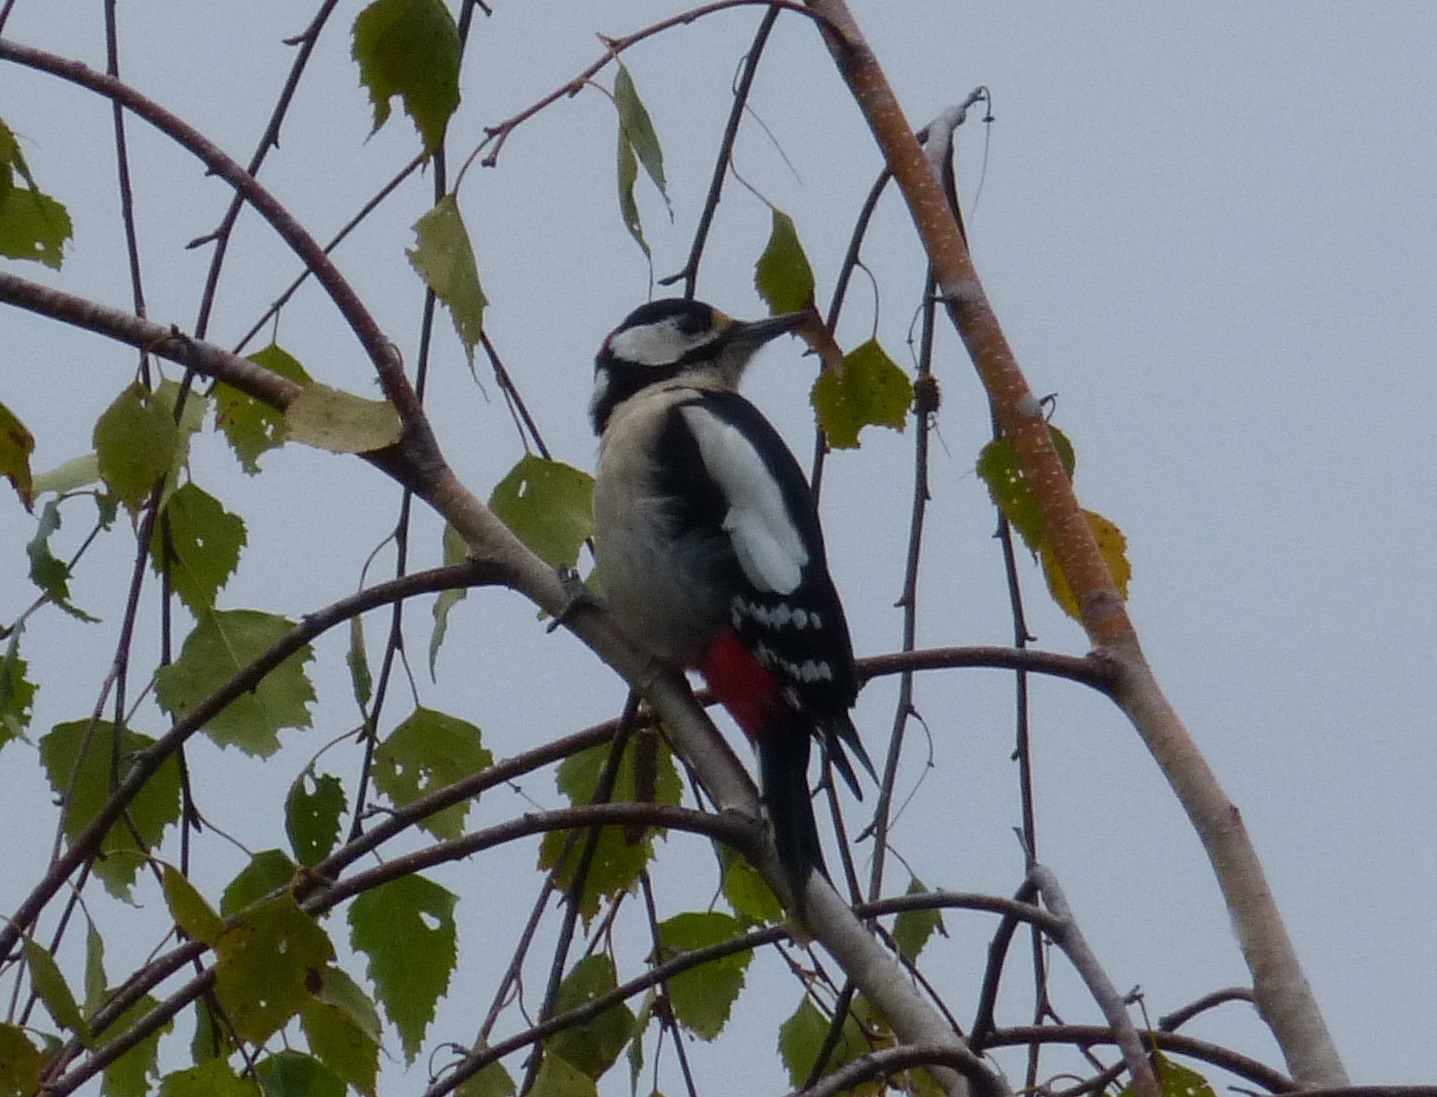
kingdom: Animalia
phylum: Chordata
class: Aves
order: Piciformes
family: Picidae
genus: Dendrocopos
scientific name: Dendrocopos major
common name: Great spotted woodpecker
